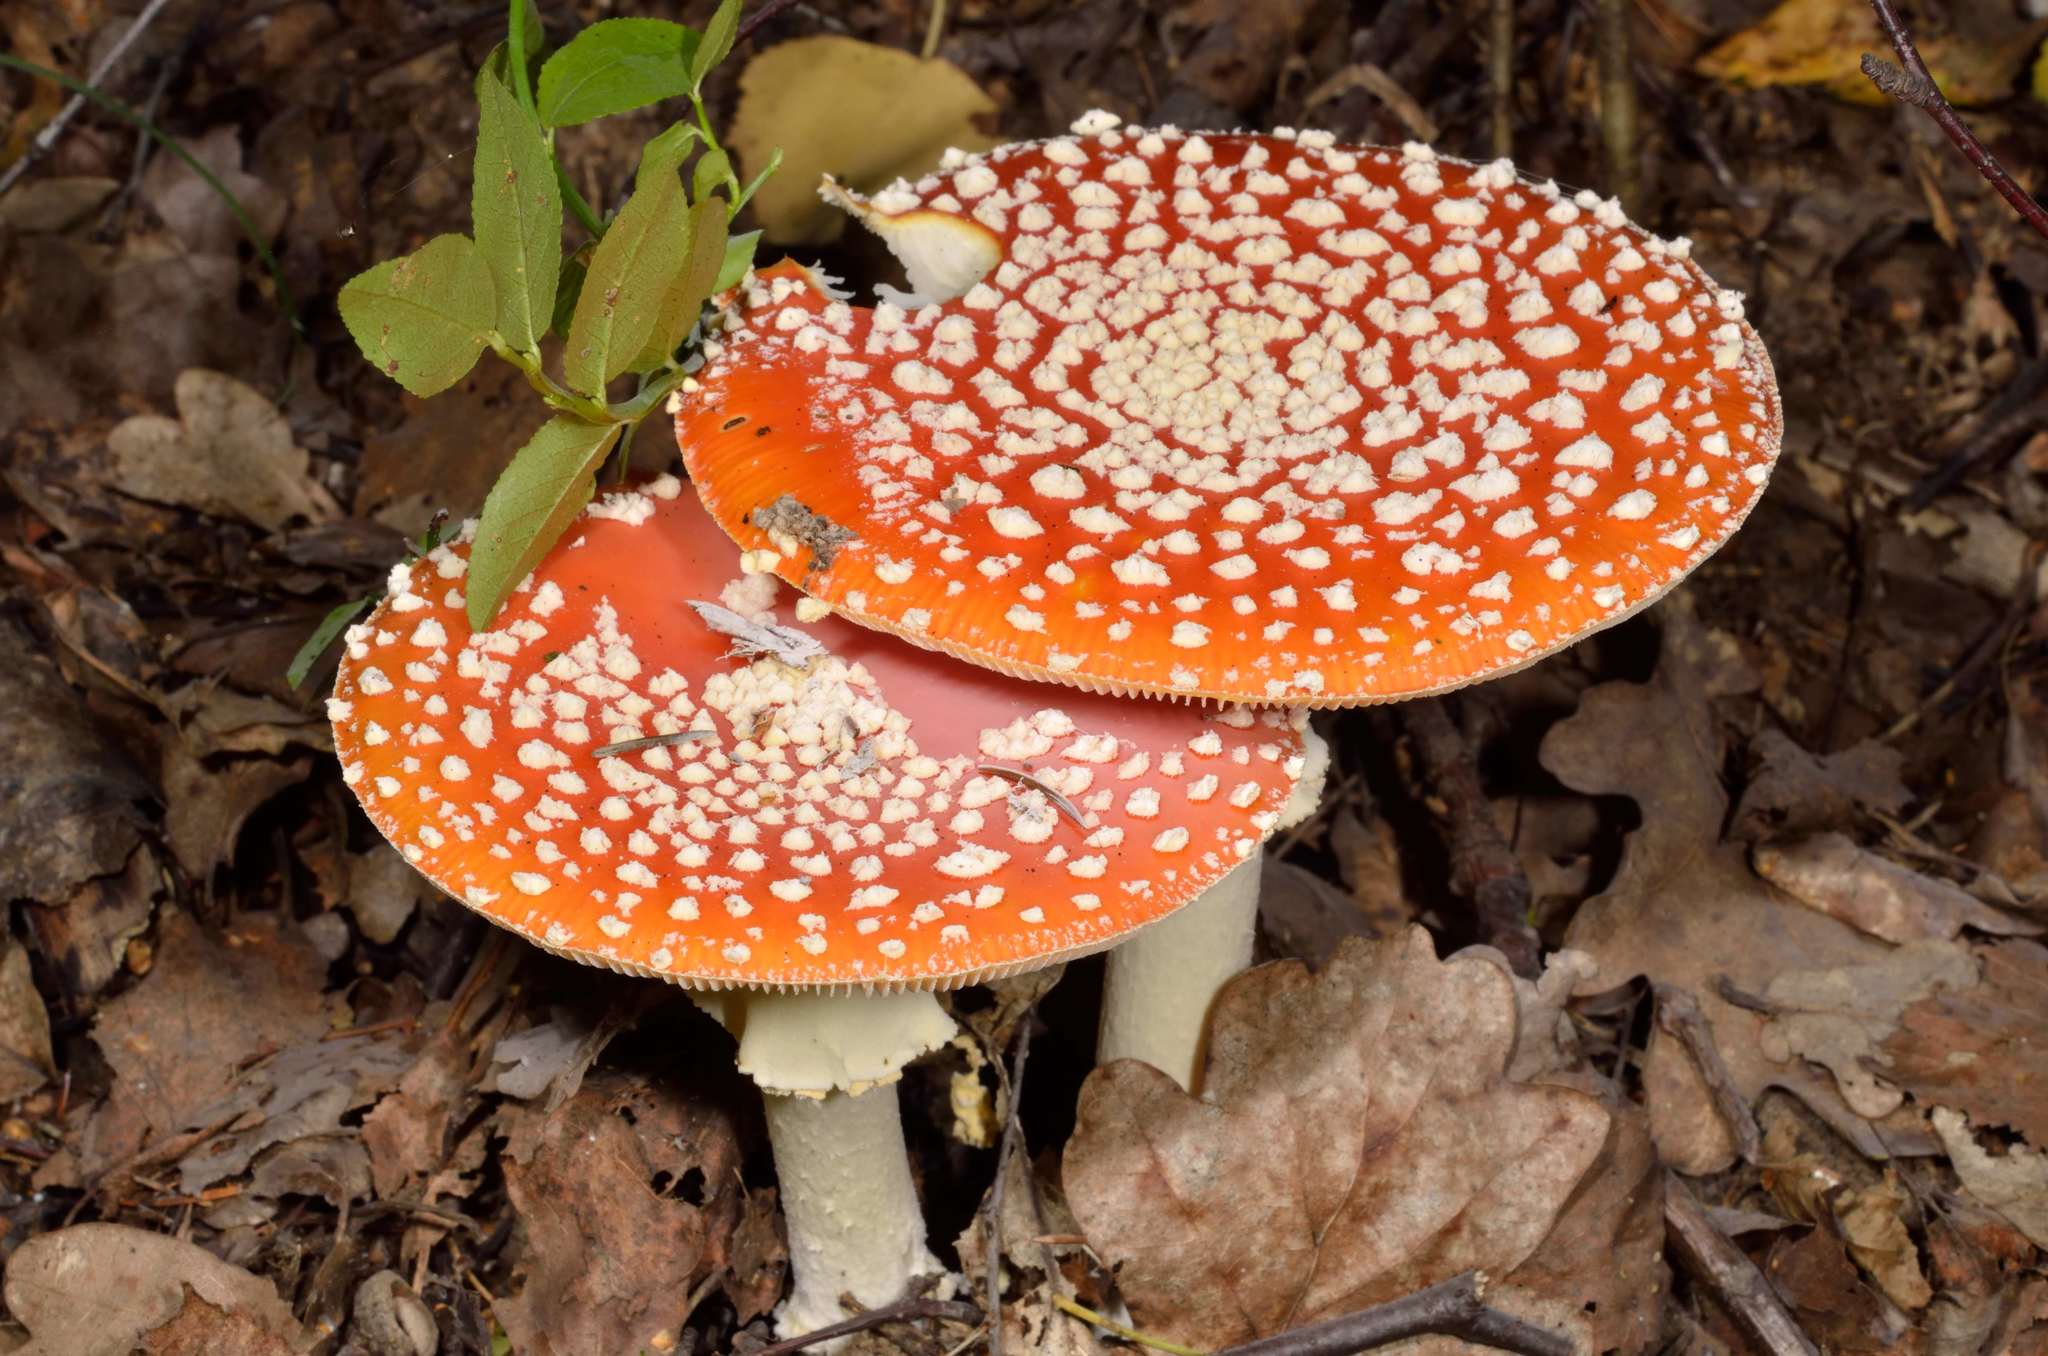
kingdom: Fungi
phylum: Basidiomycota
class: Agaricomycetes
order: Agaricales
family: Amanitaceae
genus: Amanita
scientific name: Amanita muscaria
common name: Fly agaric
